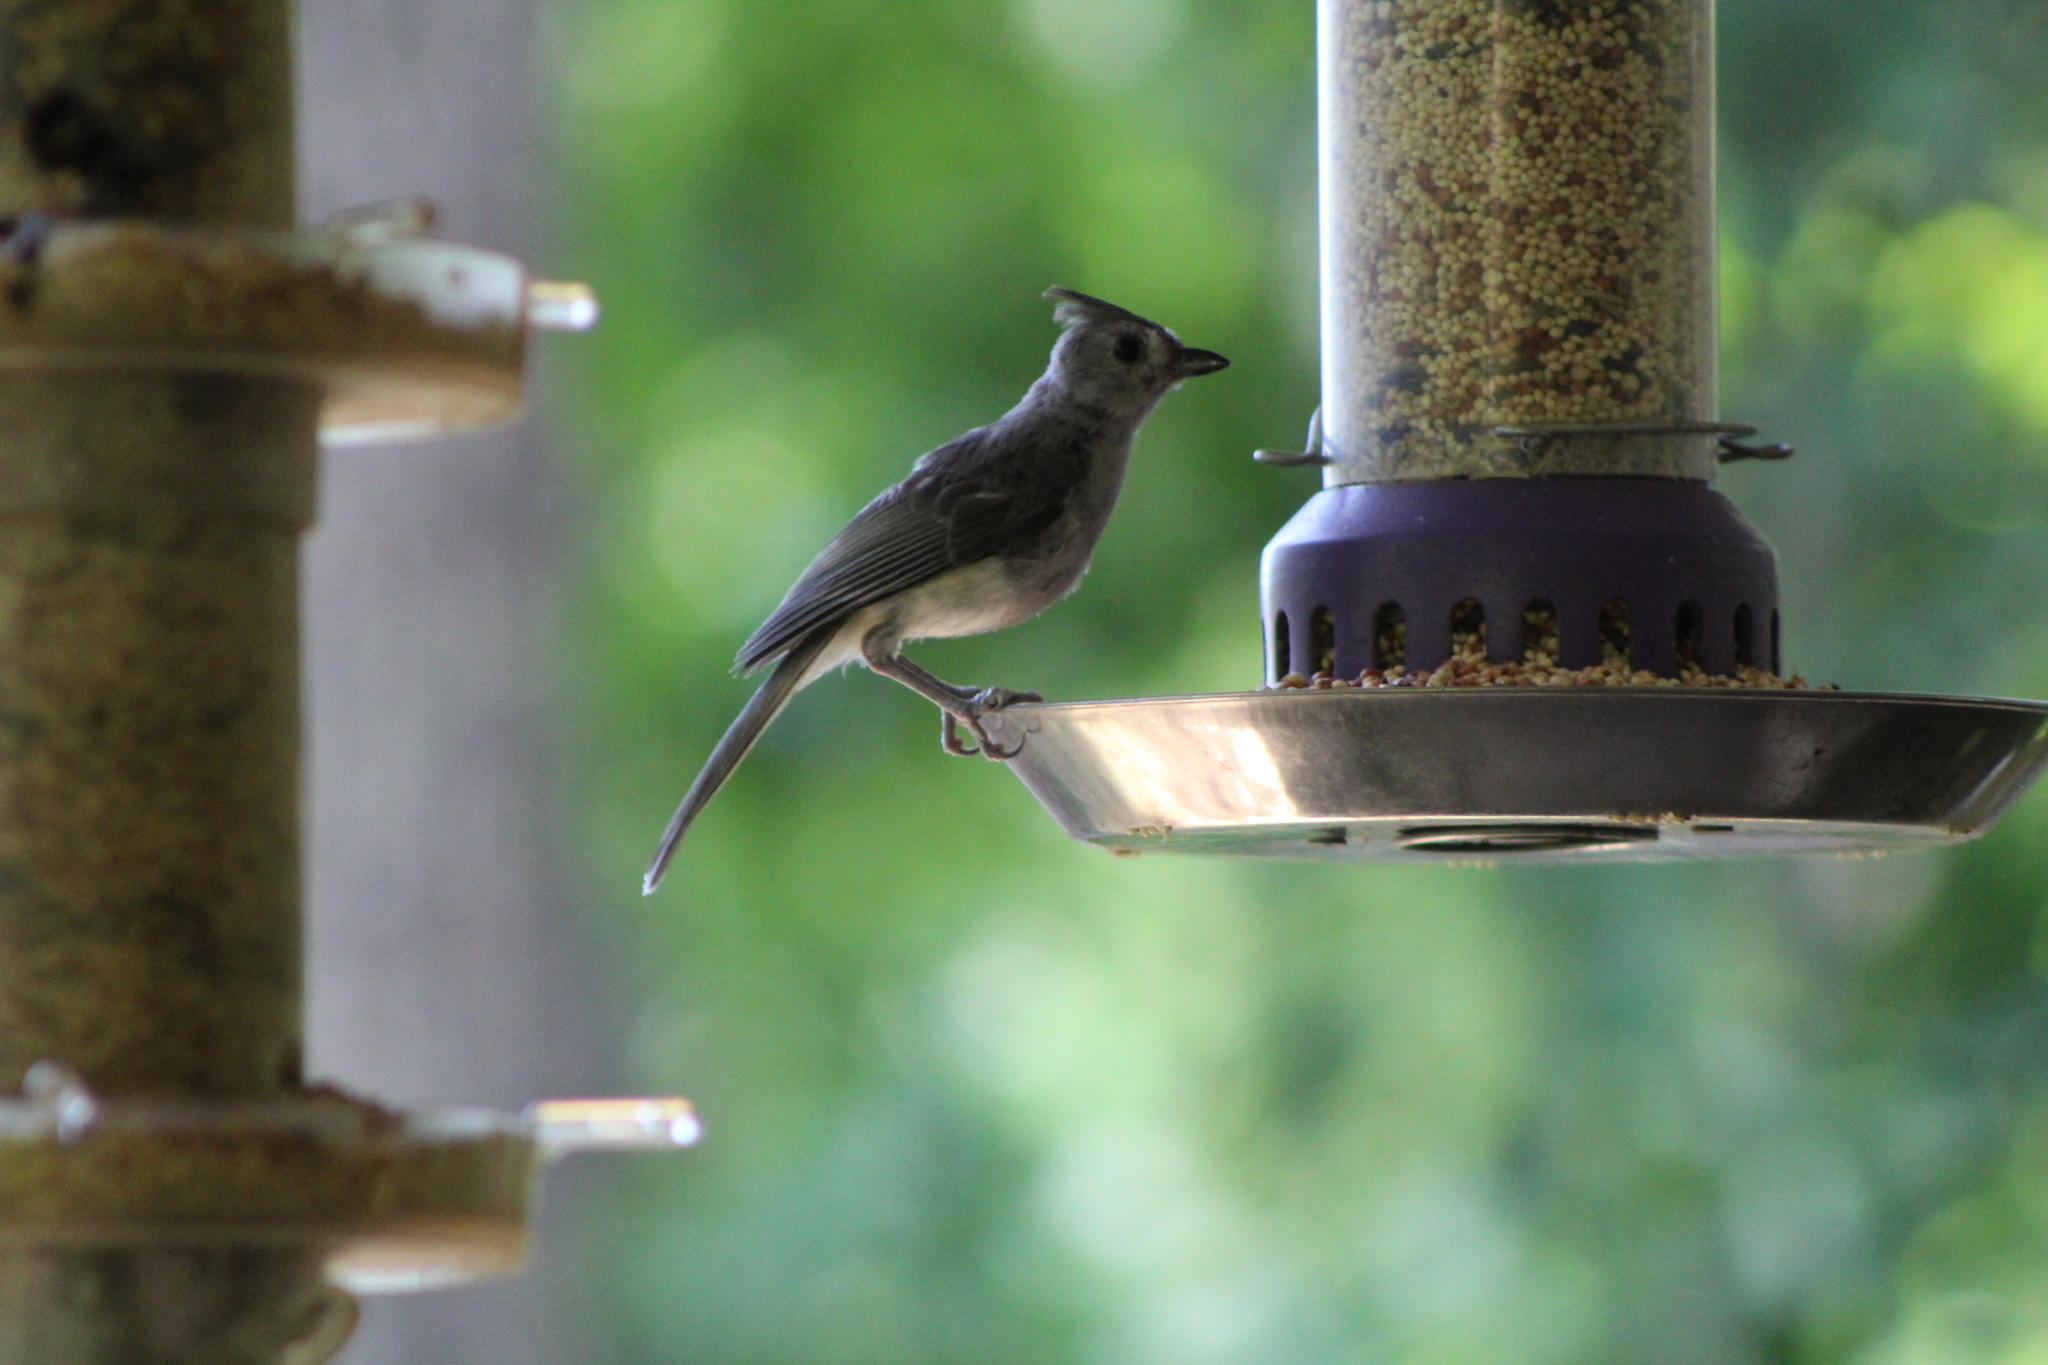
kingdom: Animalia
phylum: Chordata
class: Aves
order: Passeriformes
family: Paridae
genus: Baeolophus
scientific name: Baeolophus bicolor
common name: Tufted titmouse
